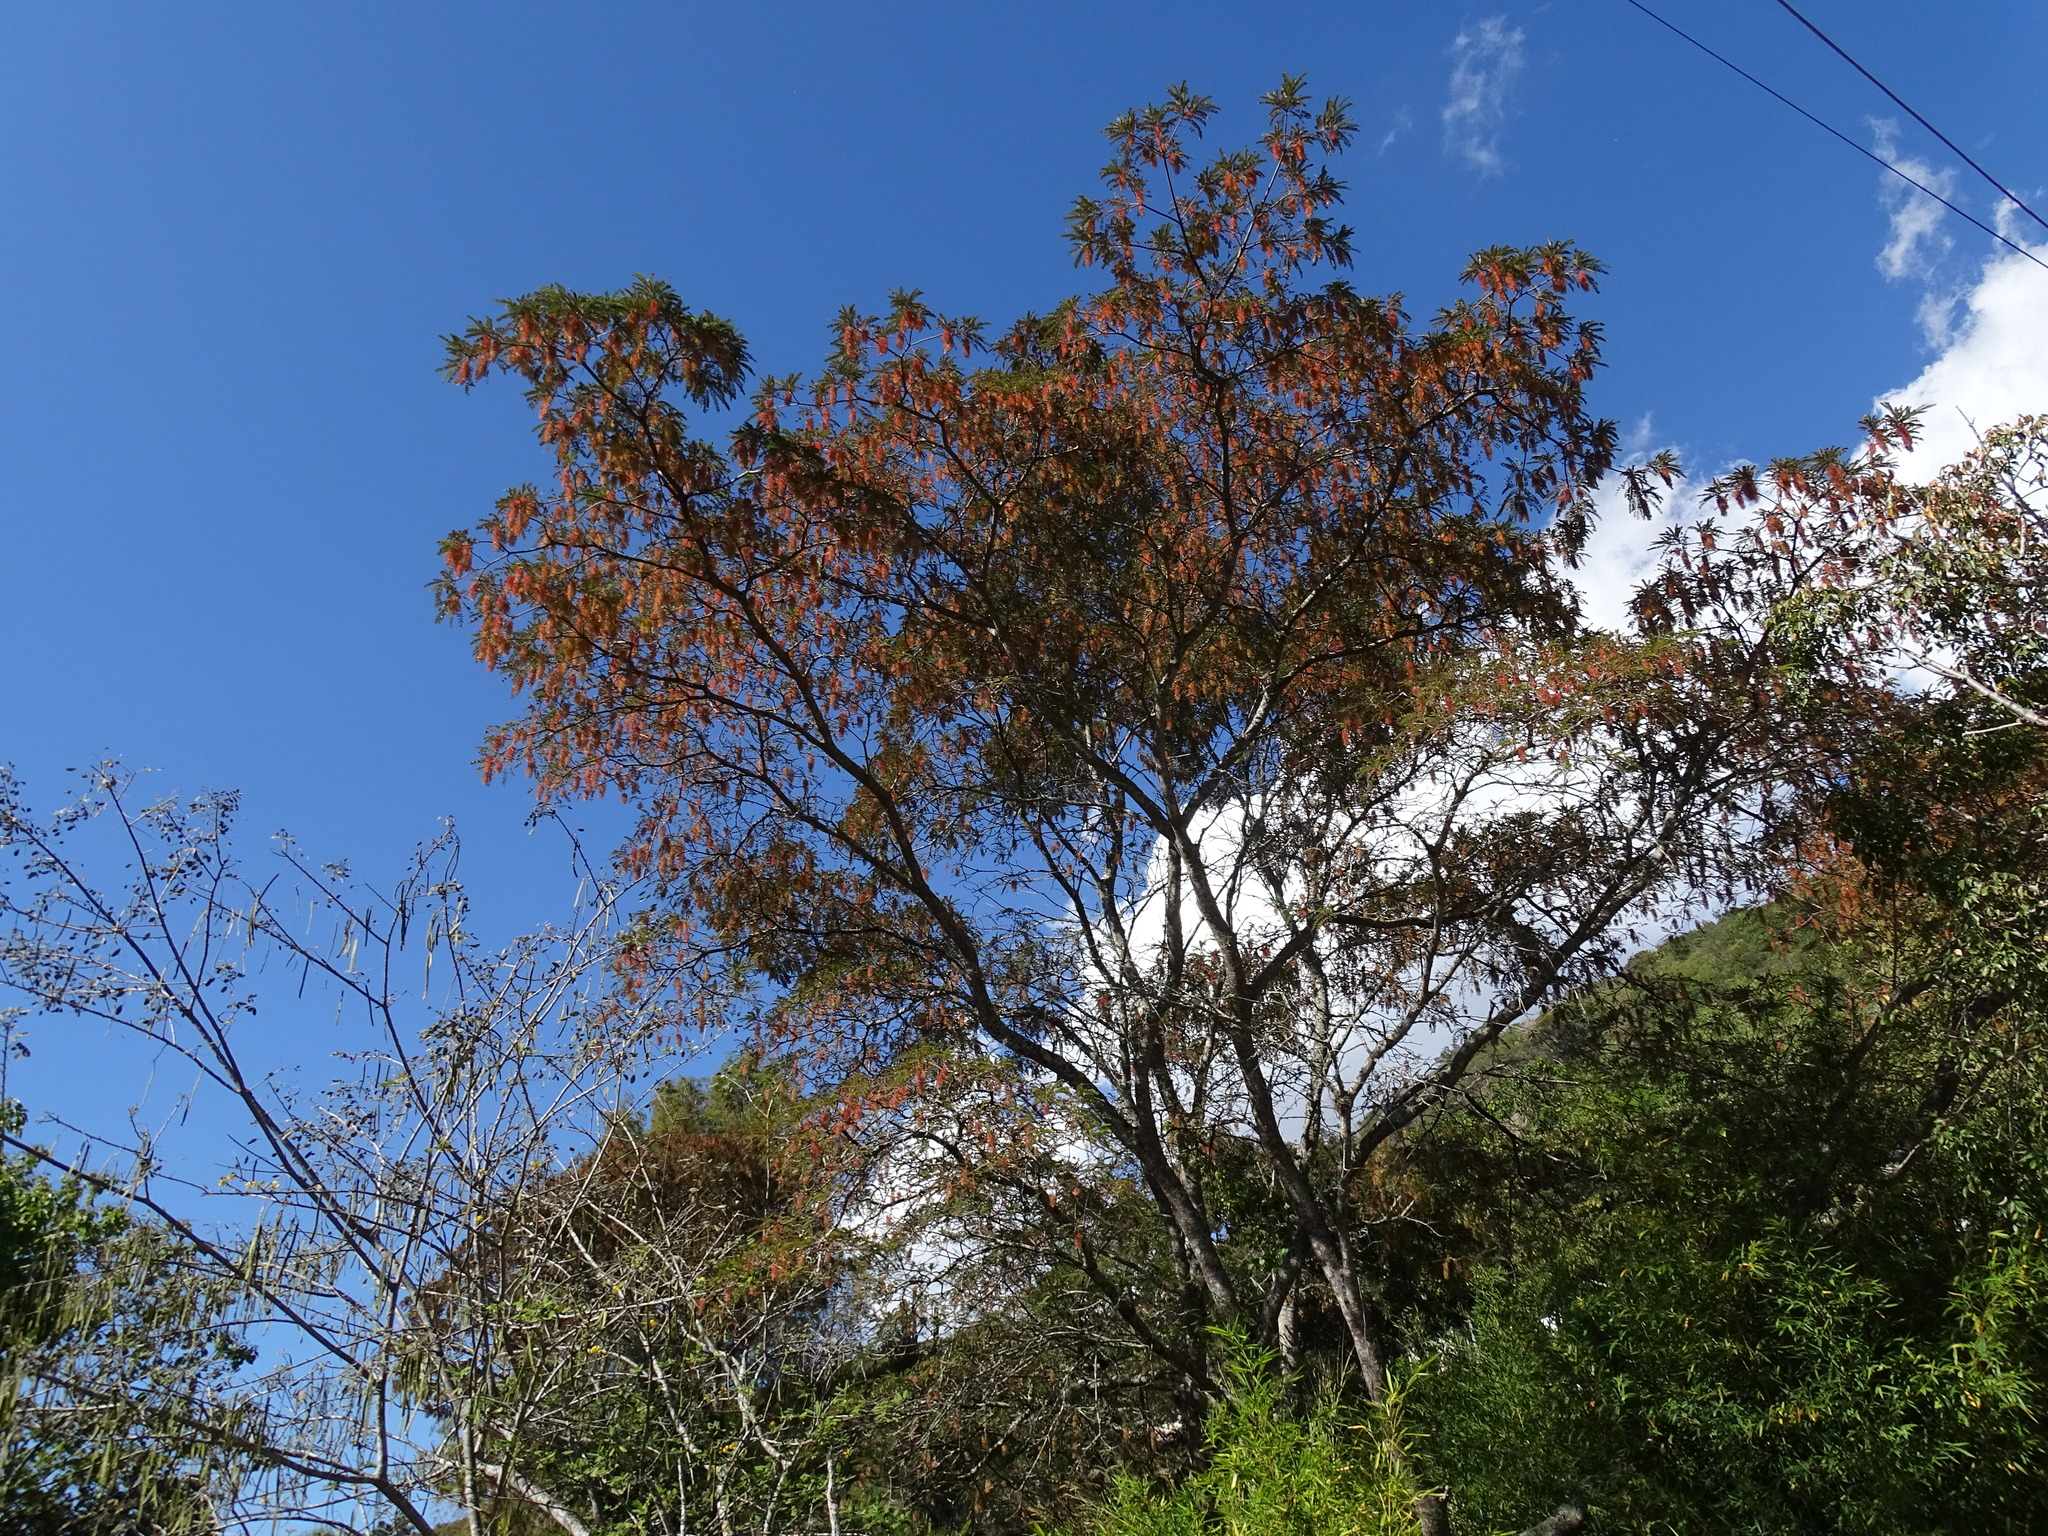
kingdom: Plantae
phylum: Tracheophyta
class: Magnoliopsida
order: Picramniales
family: Picramniaceae
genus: Alvaradoa
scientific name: Alvaradoa amorphoides
